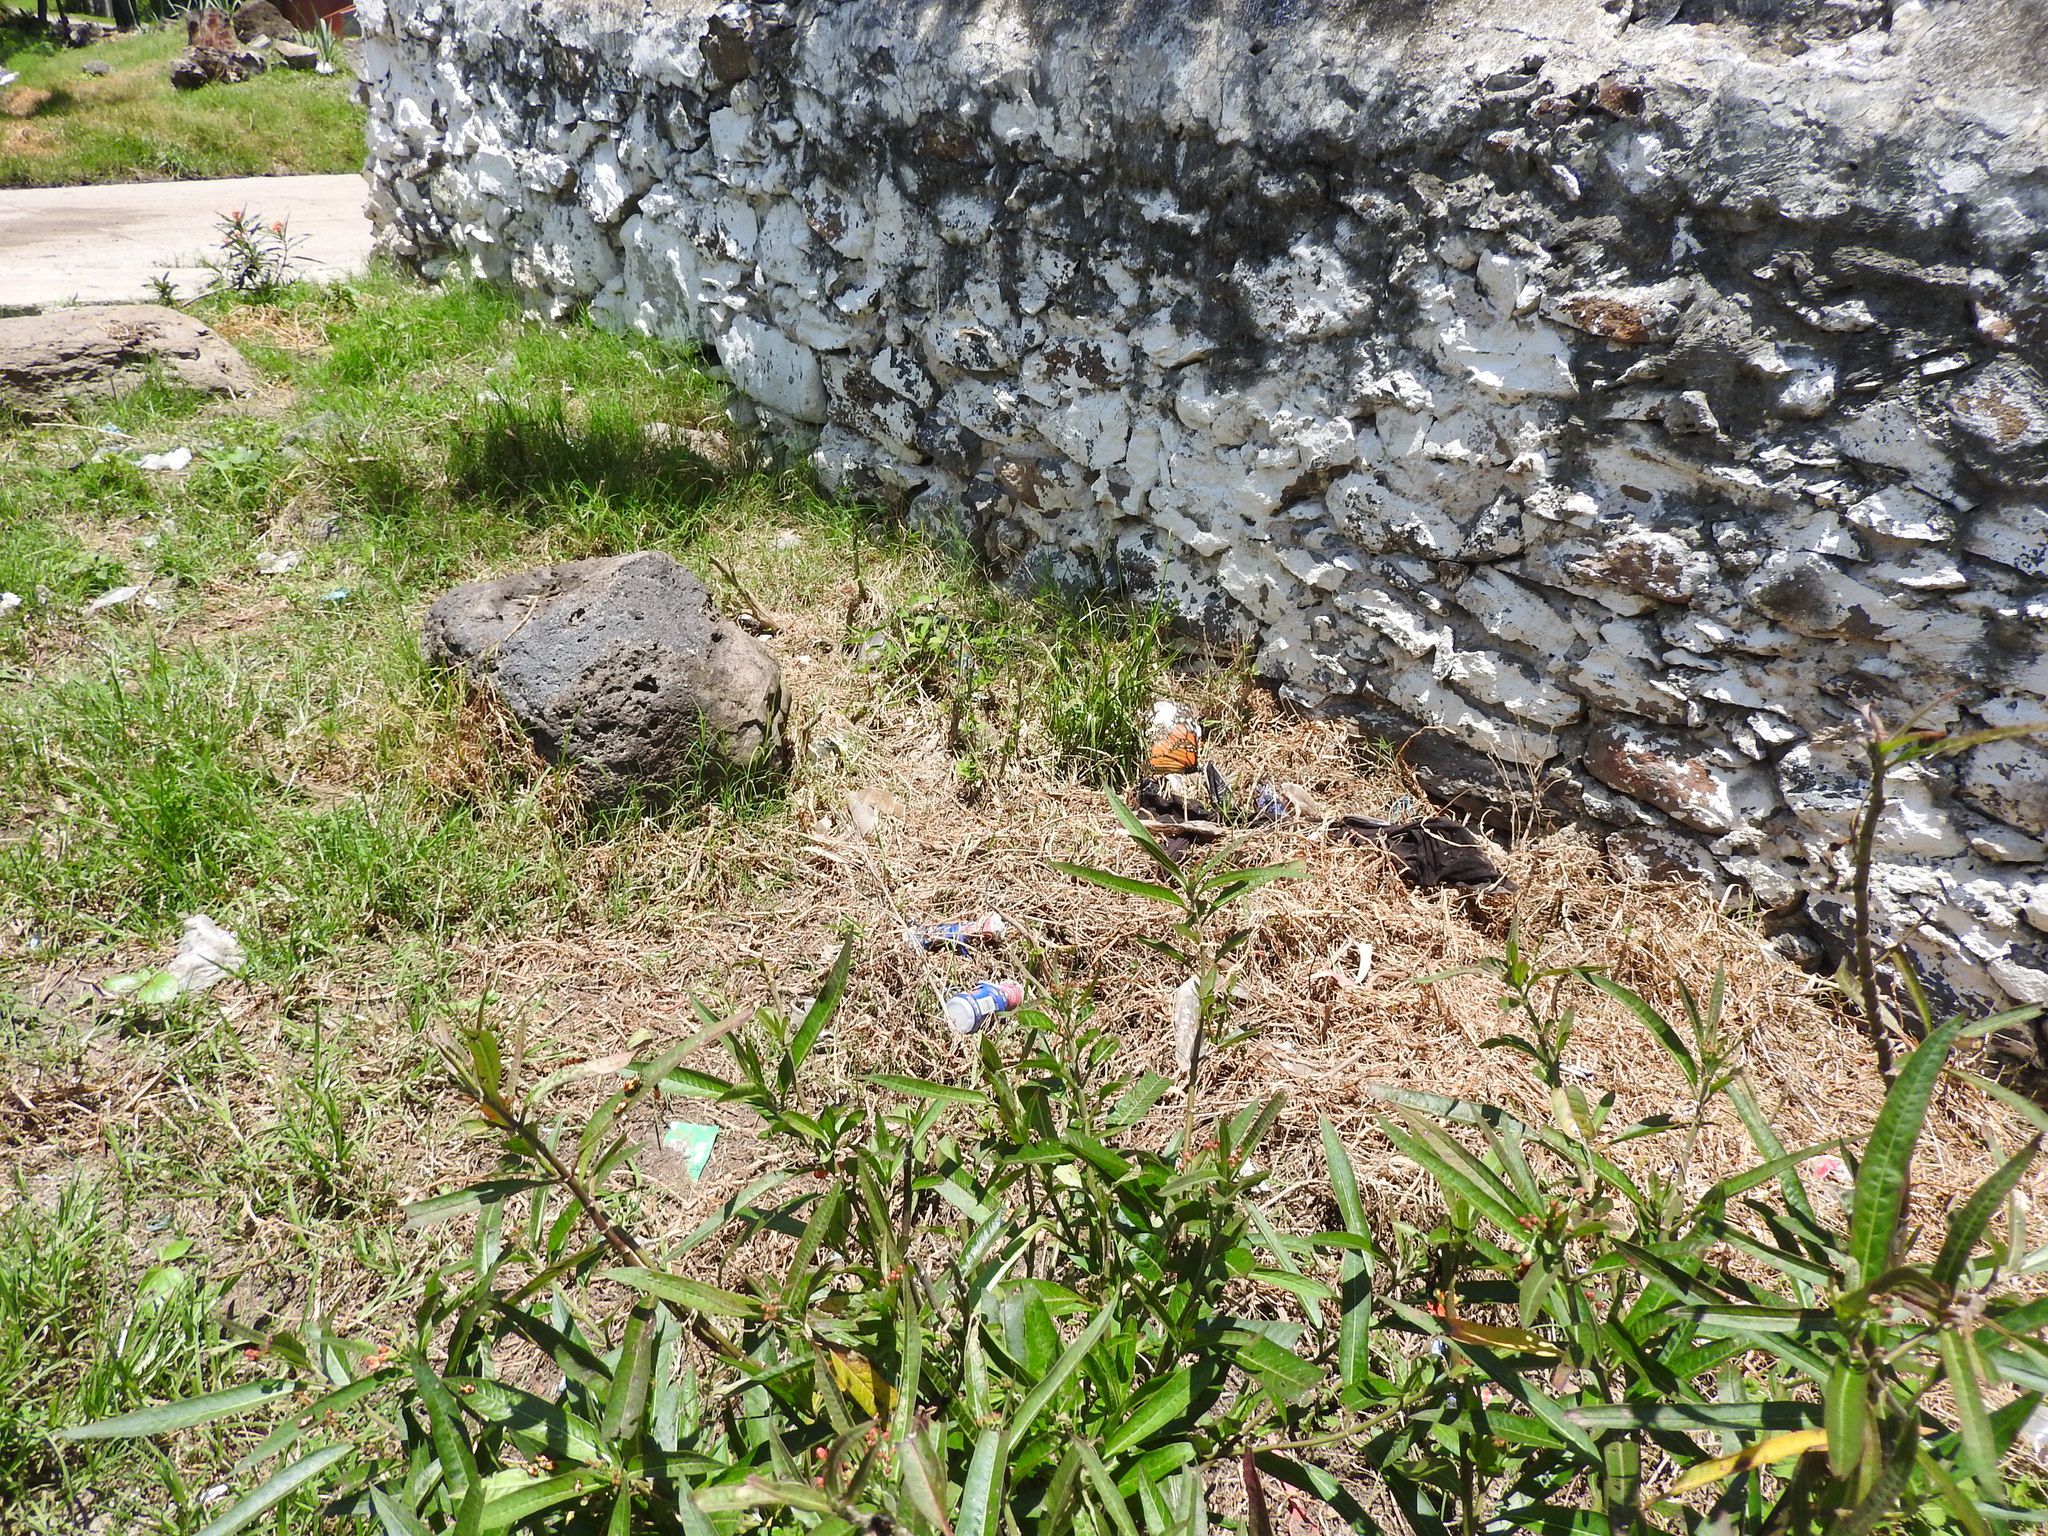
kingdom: Animalia
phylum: Arthropoda
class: Insecta
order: Lepidoptera
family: Nymphalidae
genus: Danaus
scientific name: Danaus plexippus
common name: Monarch
